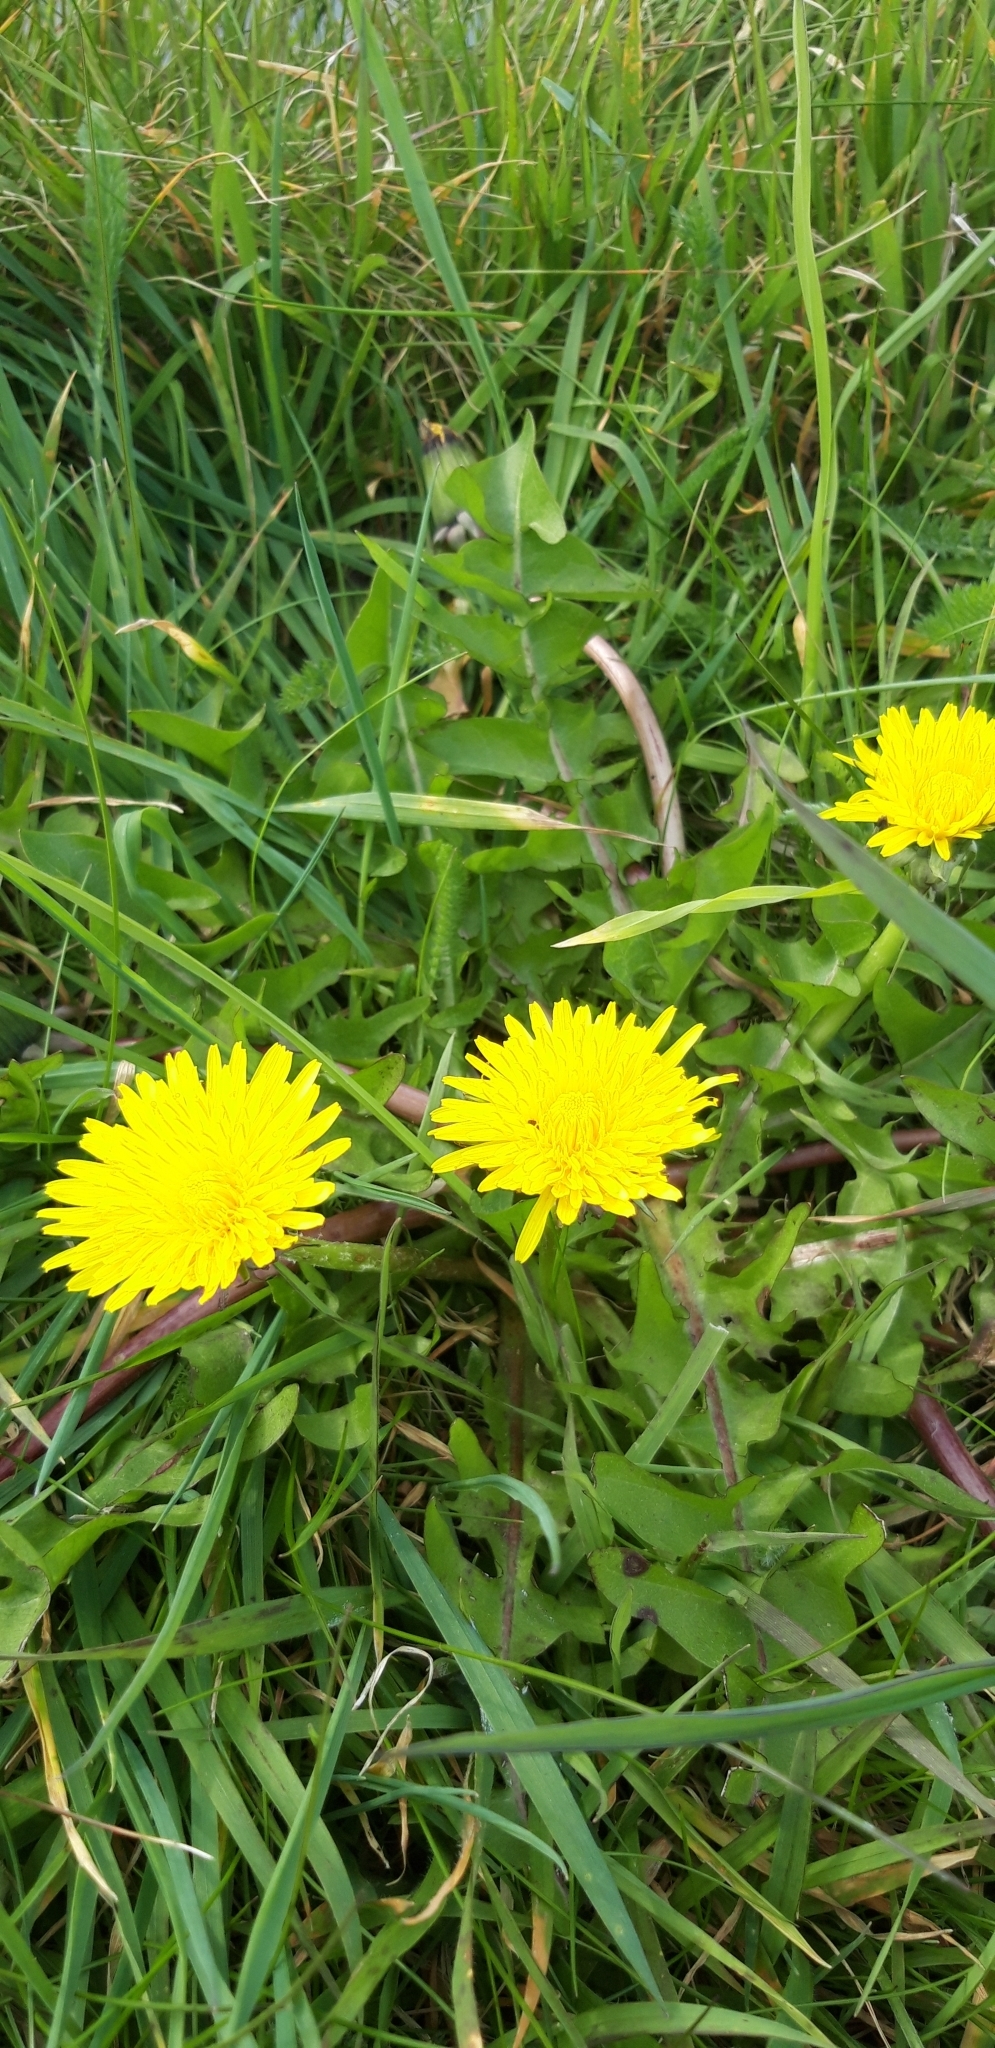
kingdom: Plantae
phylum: Tracheophyta
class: Magnoliopsida
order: Asterales
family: Asteraceae
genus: Taraxacum
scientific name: Taraxacum officinale
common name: Common dandelion
